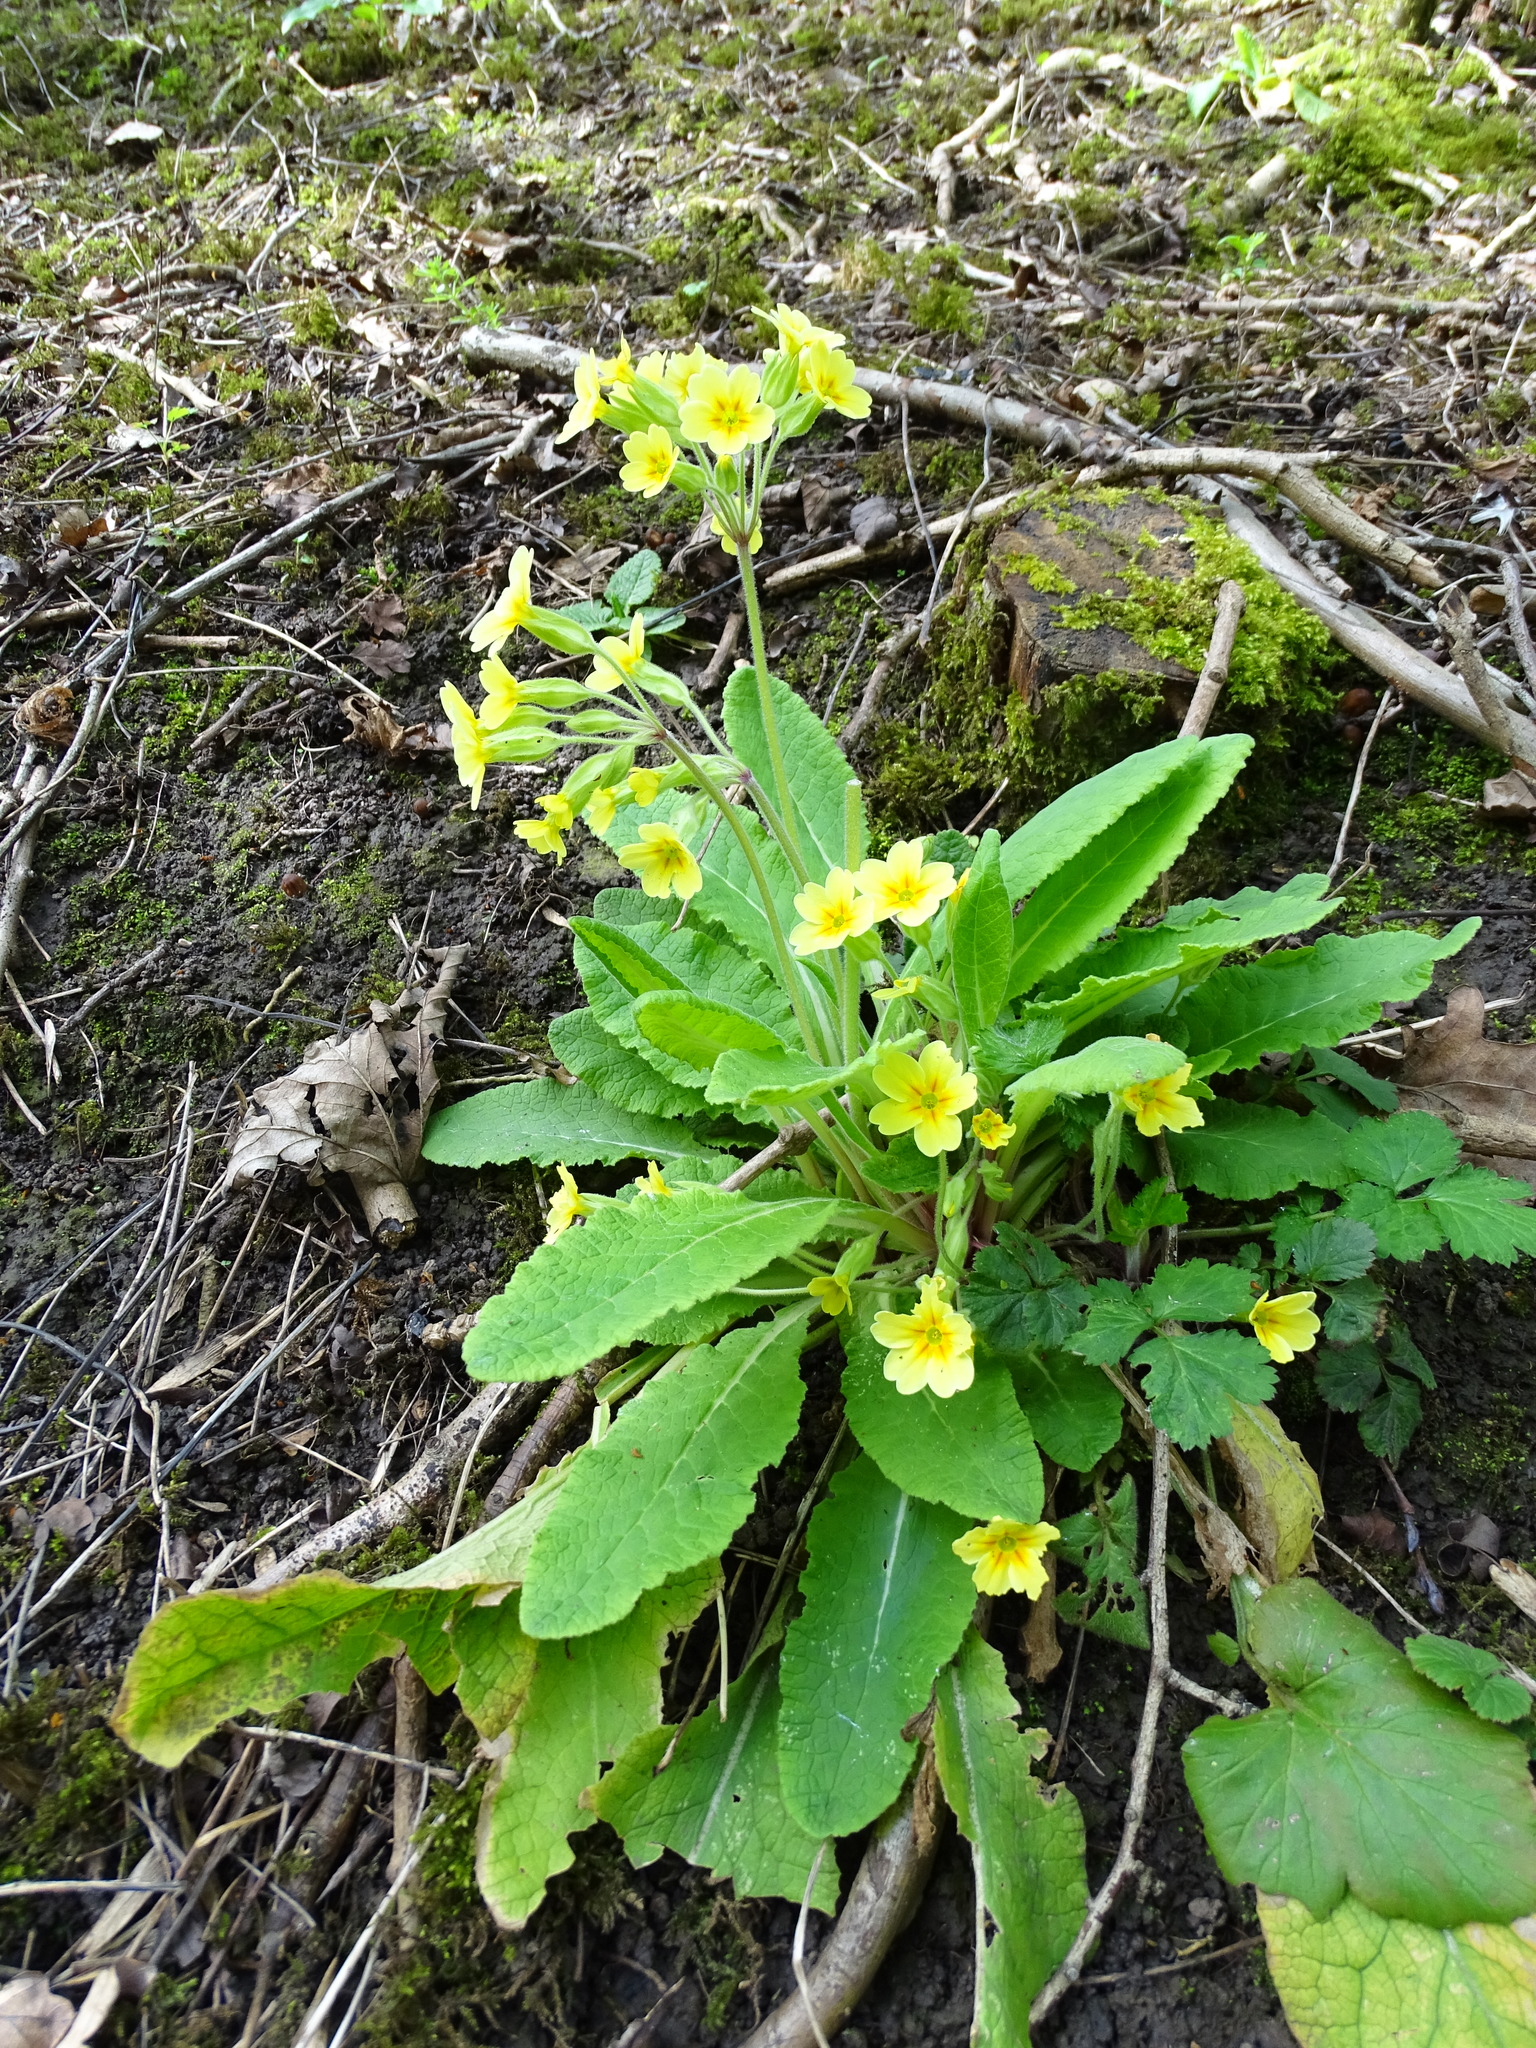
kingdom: Plantae
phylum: Tracheophyta
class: Magnoliopsida
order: Ericales
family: Primulaceae
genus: Primula
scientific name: Primula veris
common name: Cowslip
